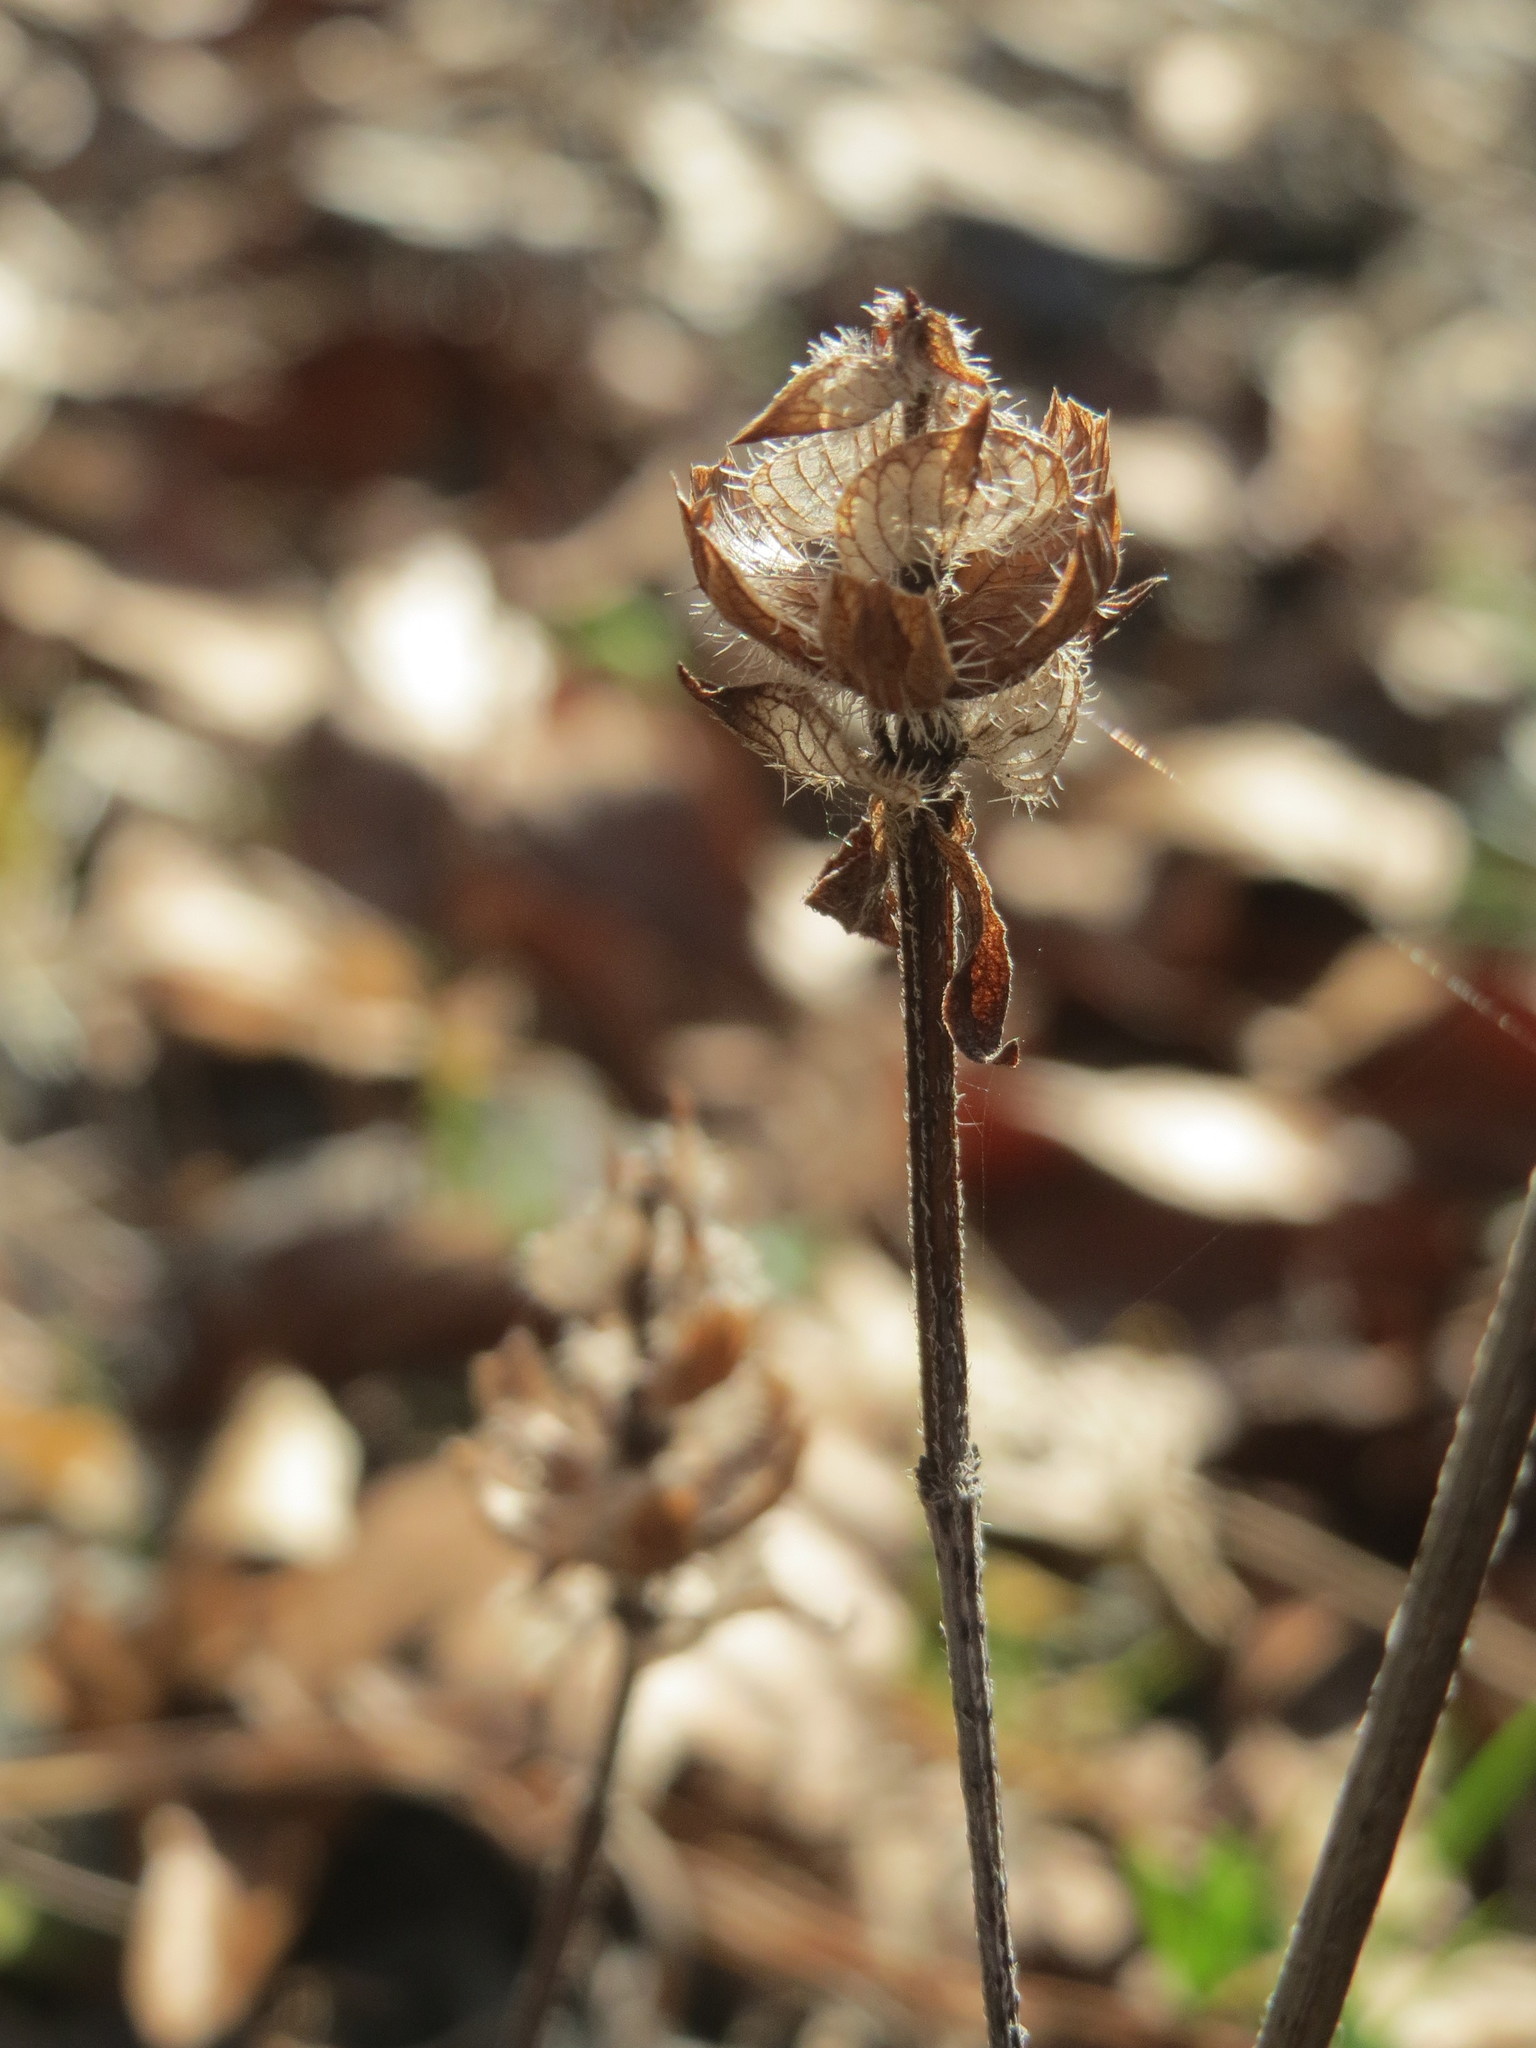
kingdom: Plantae
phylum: Tracheophyta
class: Magnoliopsida
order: Lamiales
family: Lamiaceae
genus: Prunella
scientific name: Prunella vulgaris
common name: Heal-all
